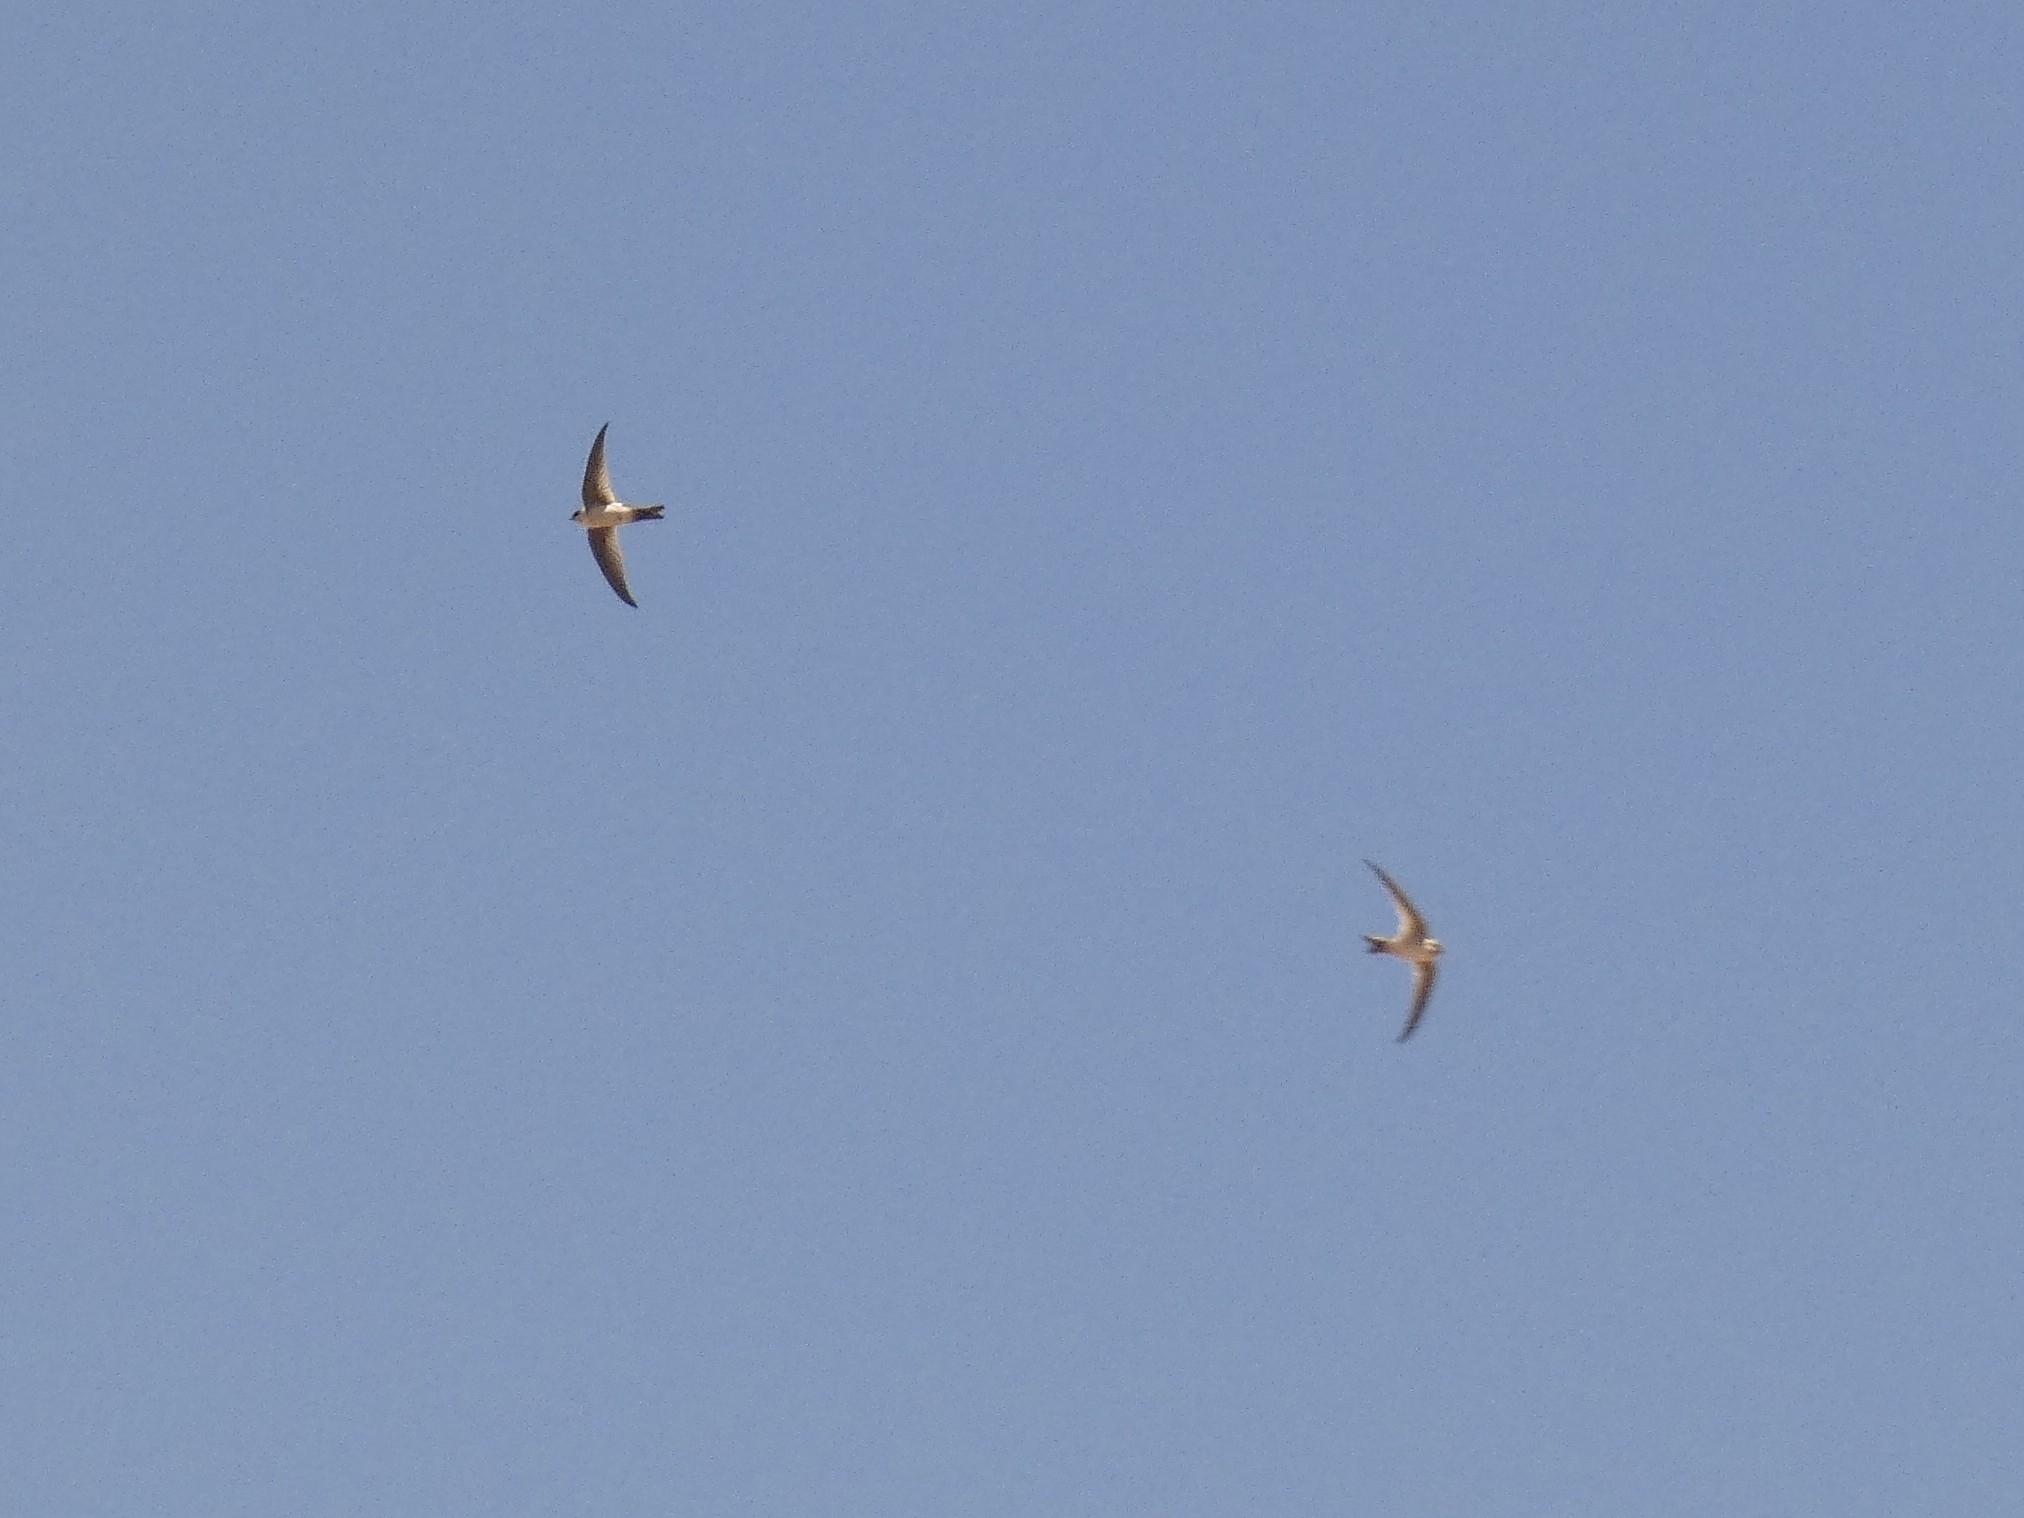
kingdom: Animalia
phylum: Chordata
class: Aves
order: Apodiformes
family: Apodidae
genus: Aeronautes
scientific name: Aeronautes andecolus
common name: Andean swift
